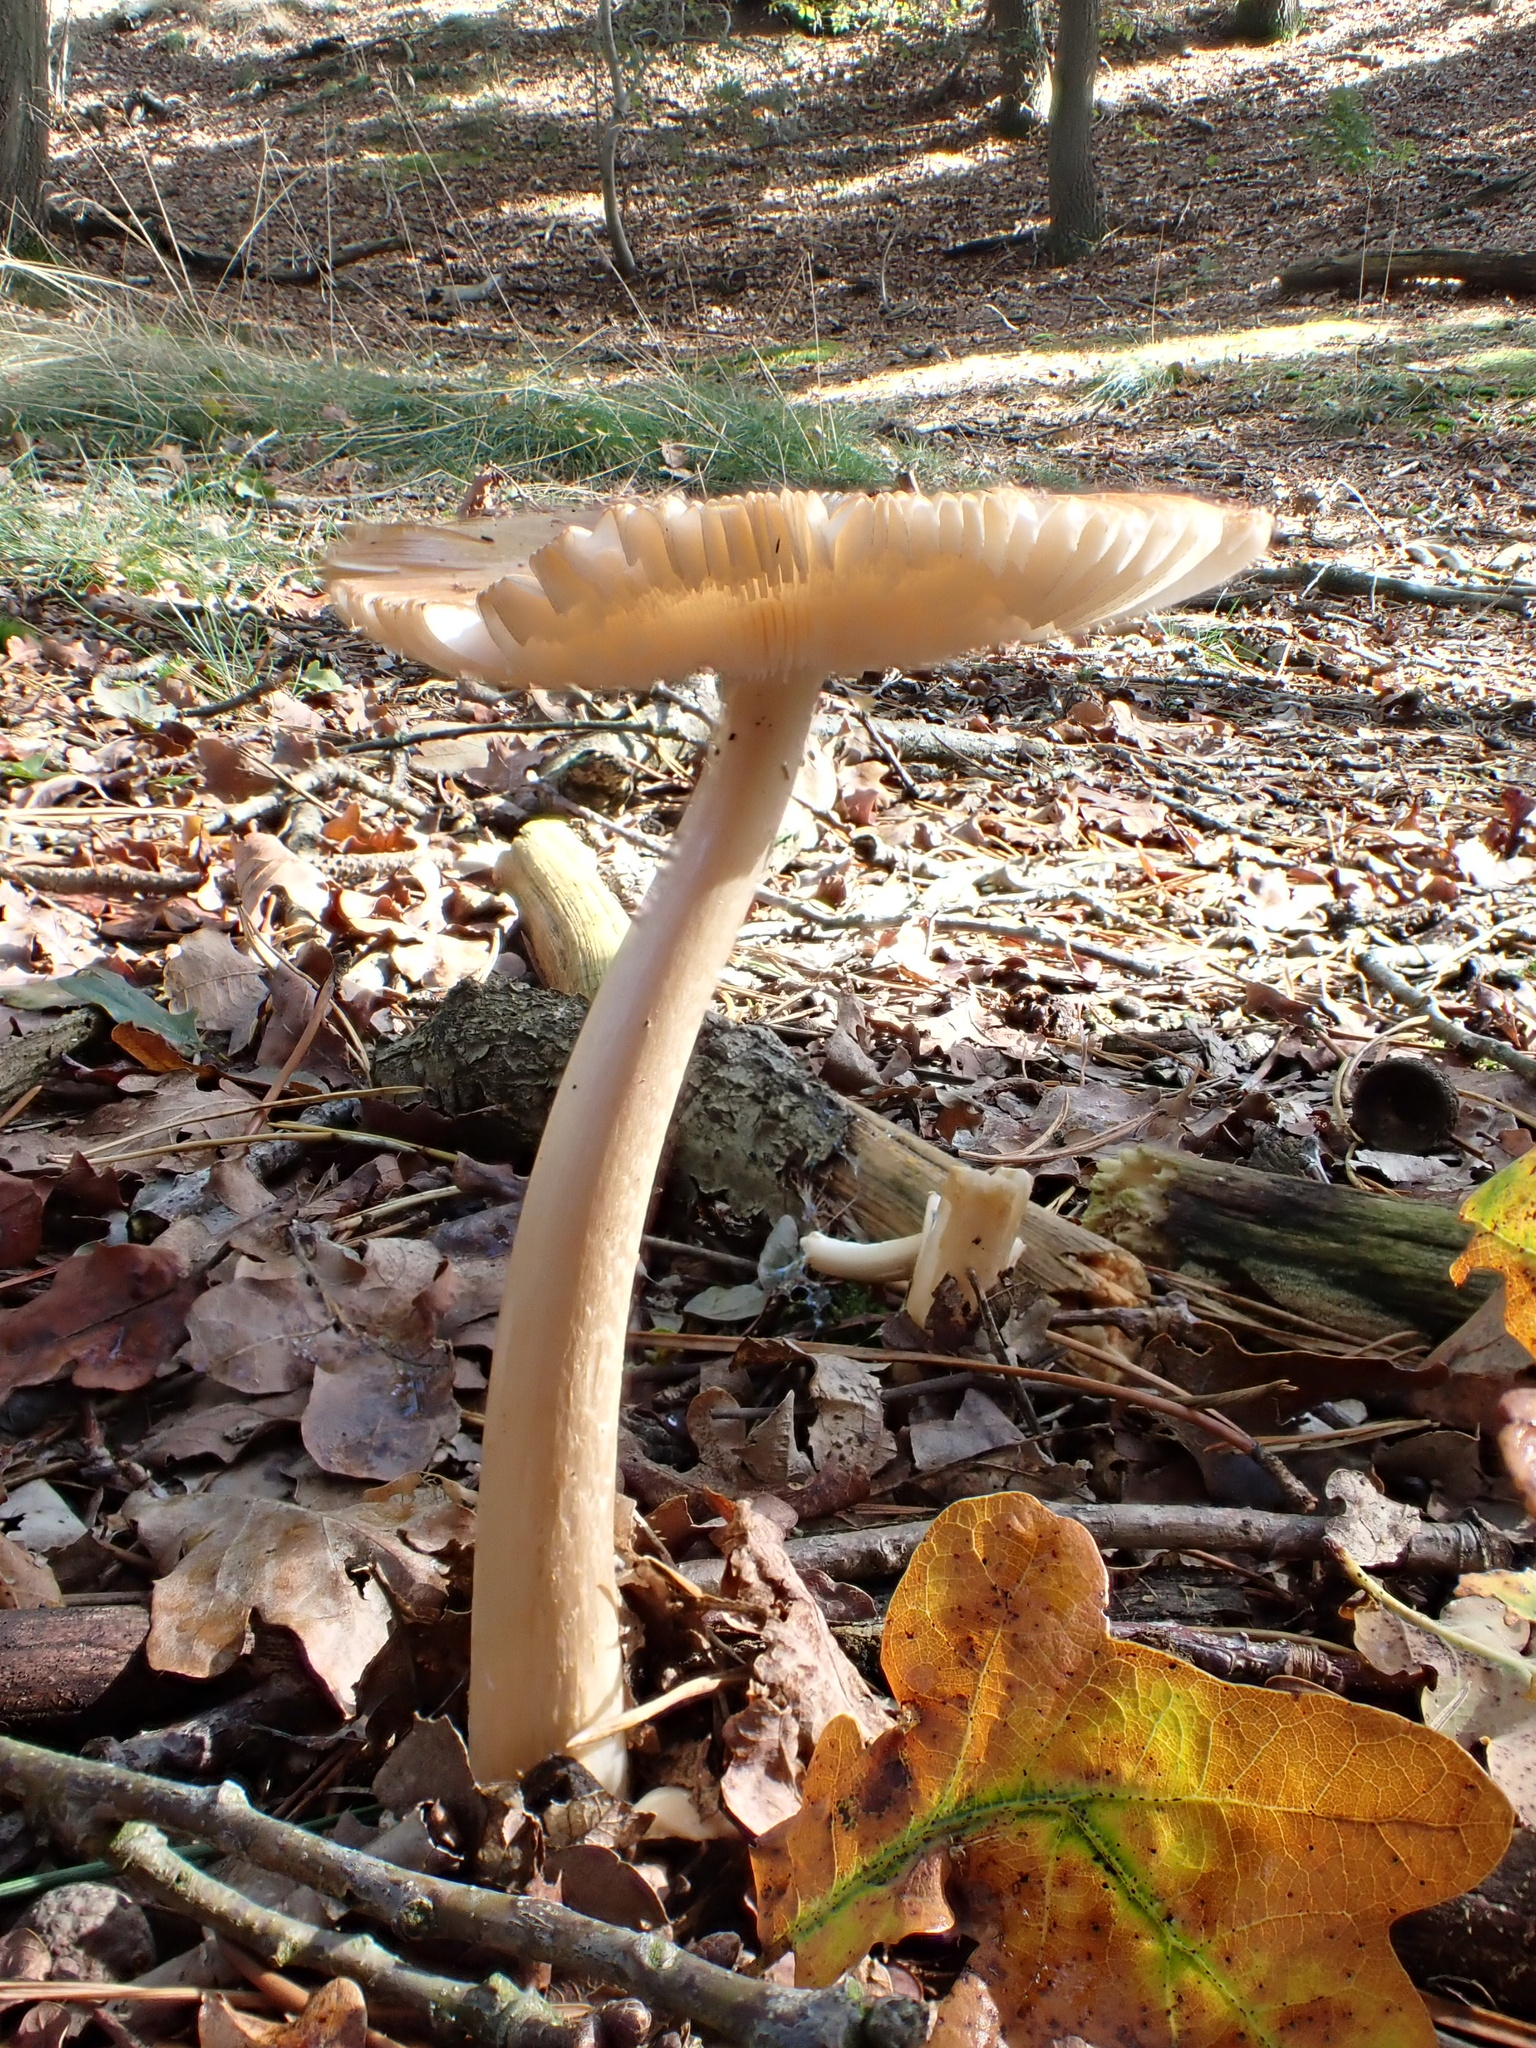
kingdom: Fungi
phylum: Basidiomycota
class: Agaricomycetes
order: Agaricales
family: Amanitaceae
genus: Amanita
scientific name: Amanita fulva
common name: Tawny grisette
